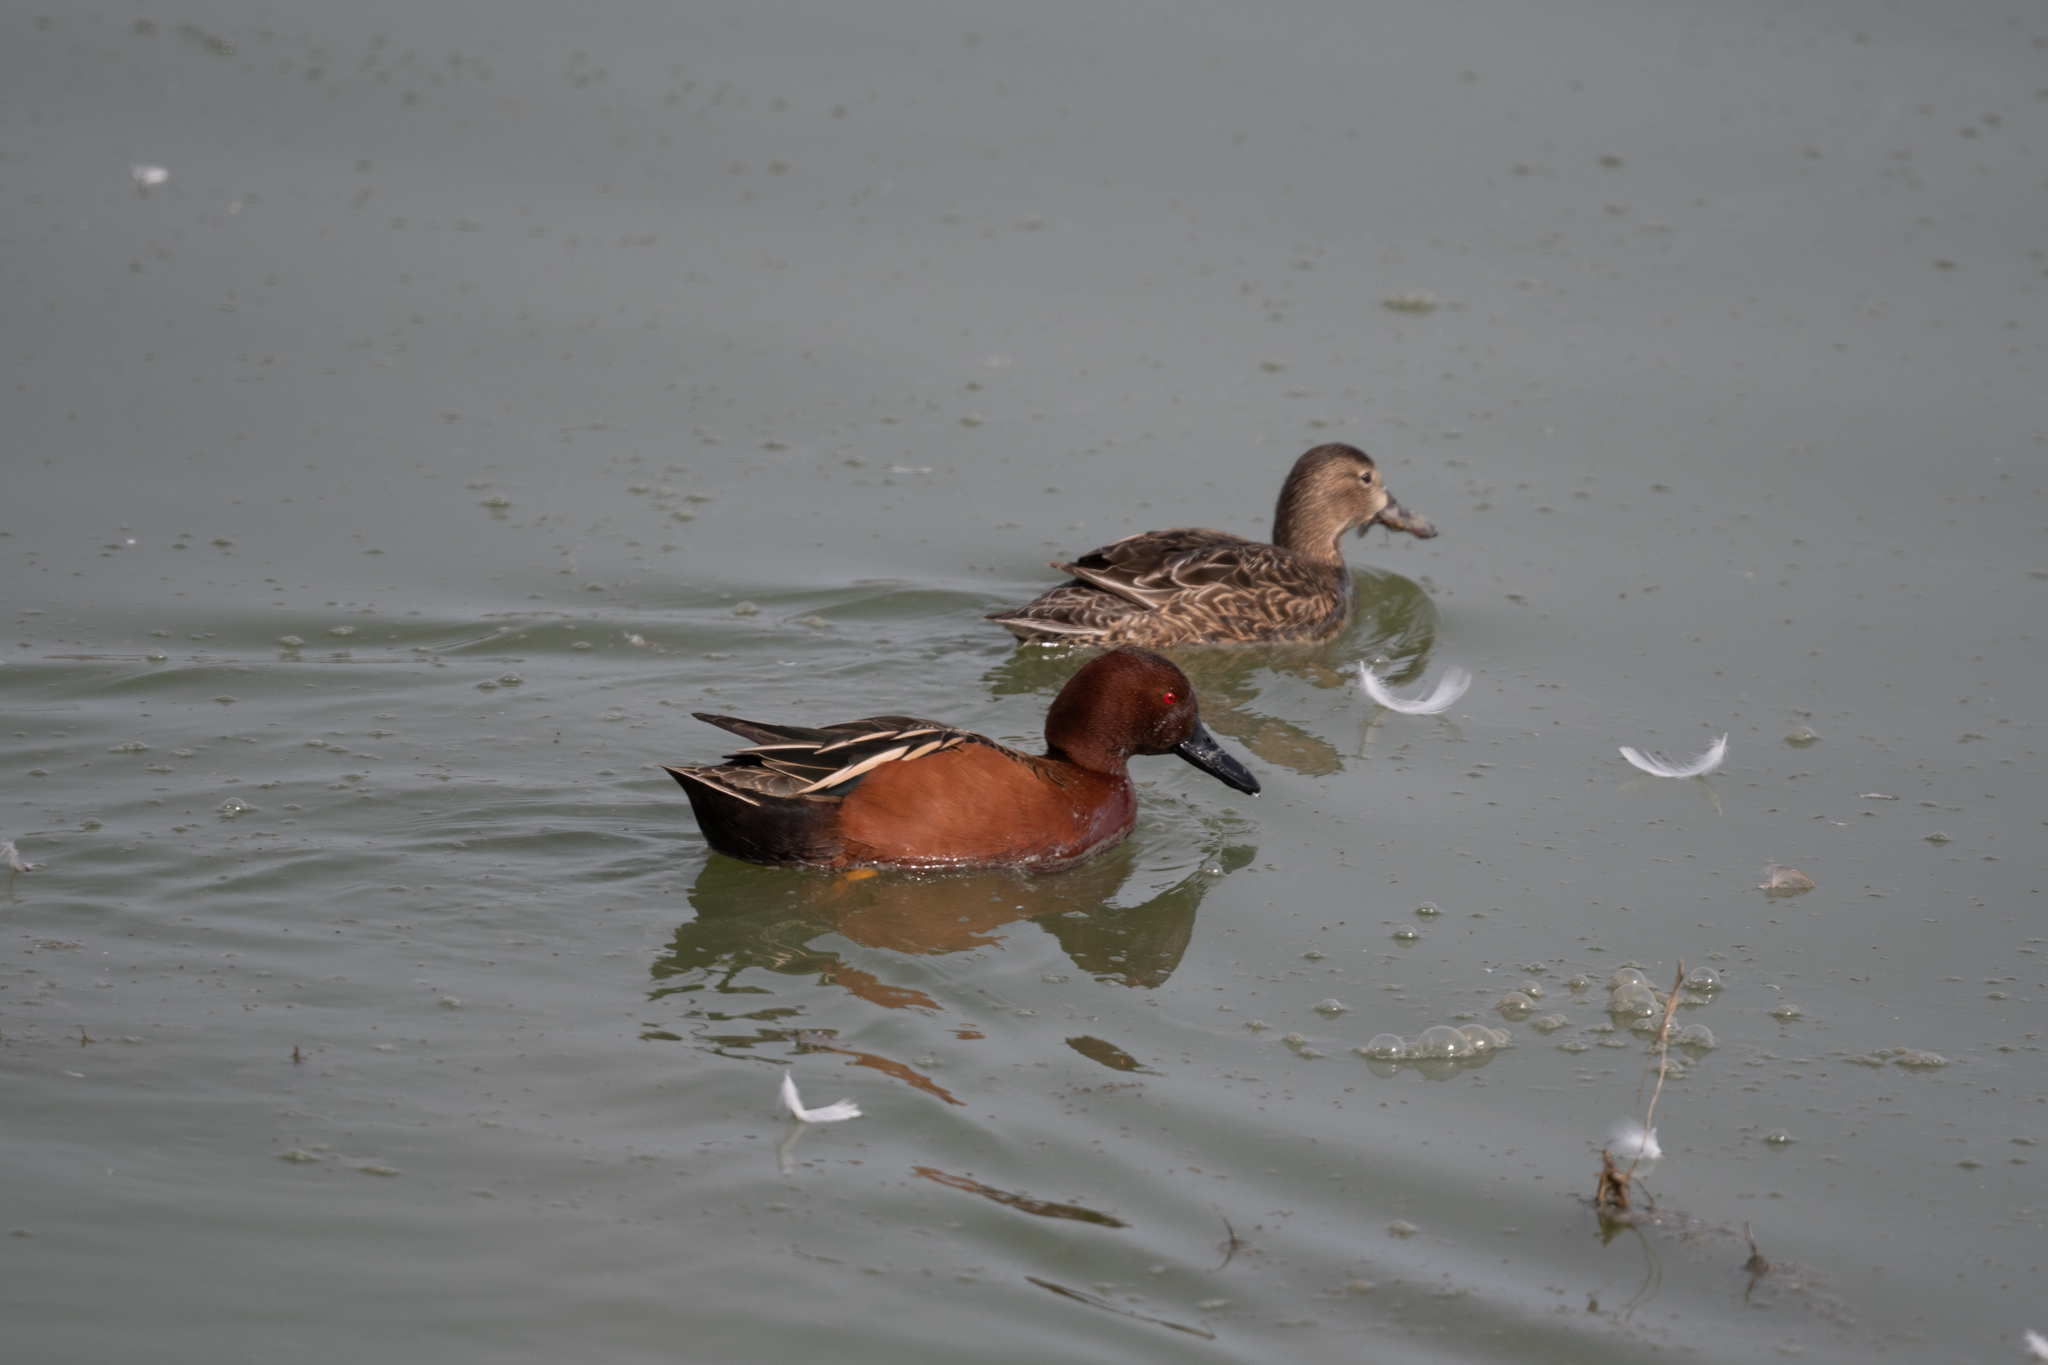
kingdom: Animalia
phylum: Chordata
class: Aves
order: Anseriformes
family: Anatidae
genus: Spatula
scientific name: Spatula cyanoptera
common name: Cinnamon teal
